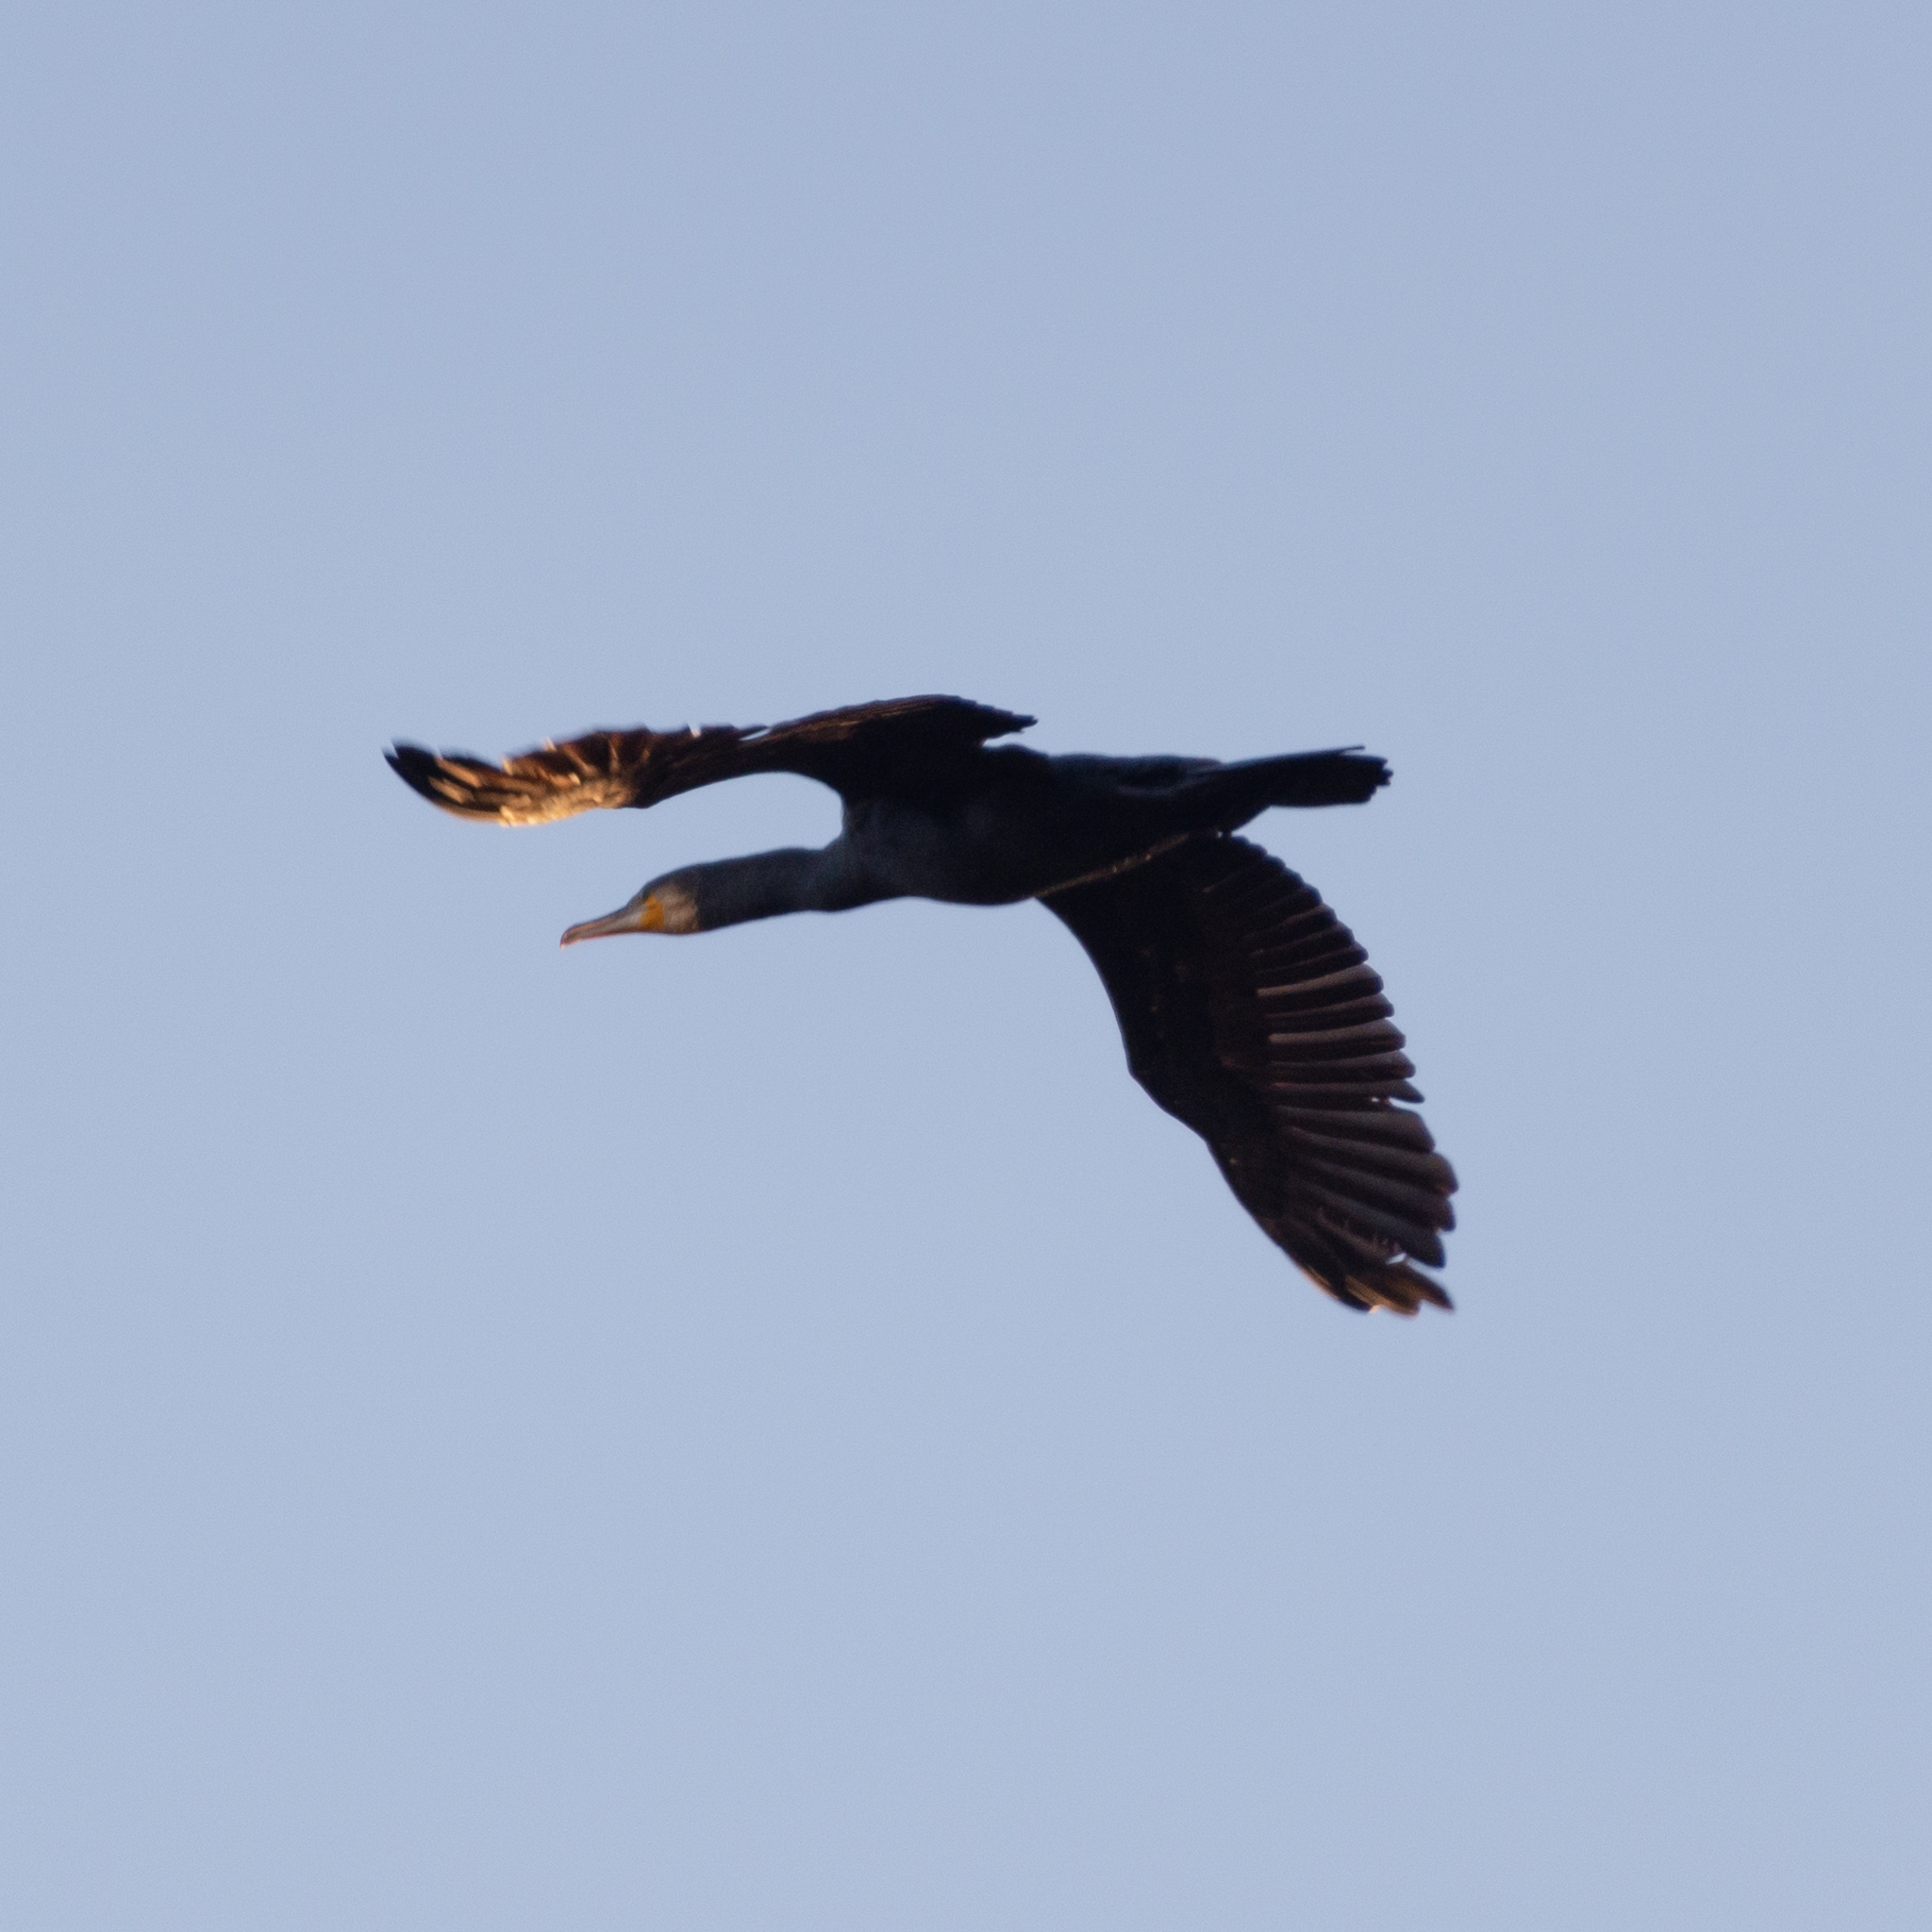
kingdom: Animalia
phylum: Chordata
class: Aves
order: Suliformes
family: Phalacrocoracidae
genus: Phalacrocorax
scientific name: Phalacrocorax carbo
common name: Great cormorant
